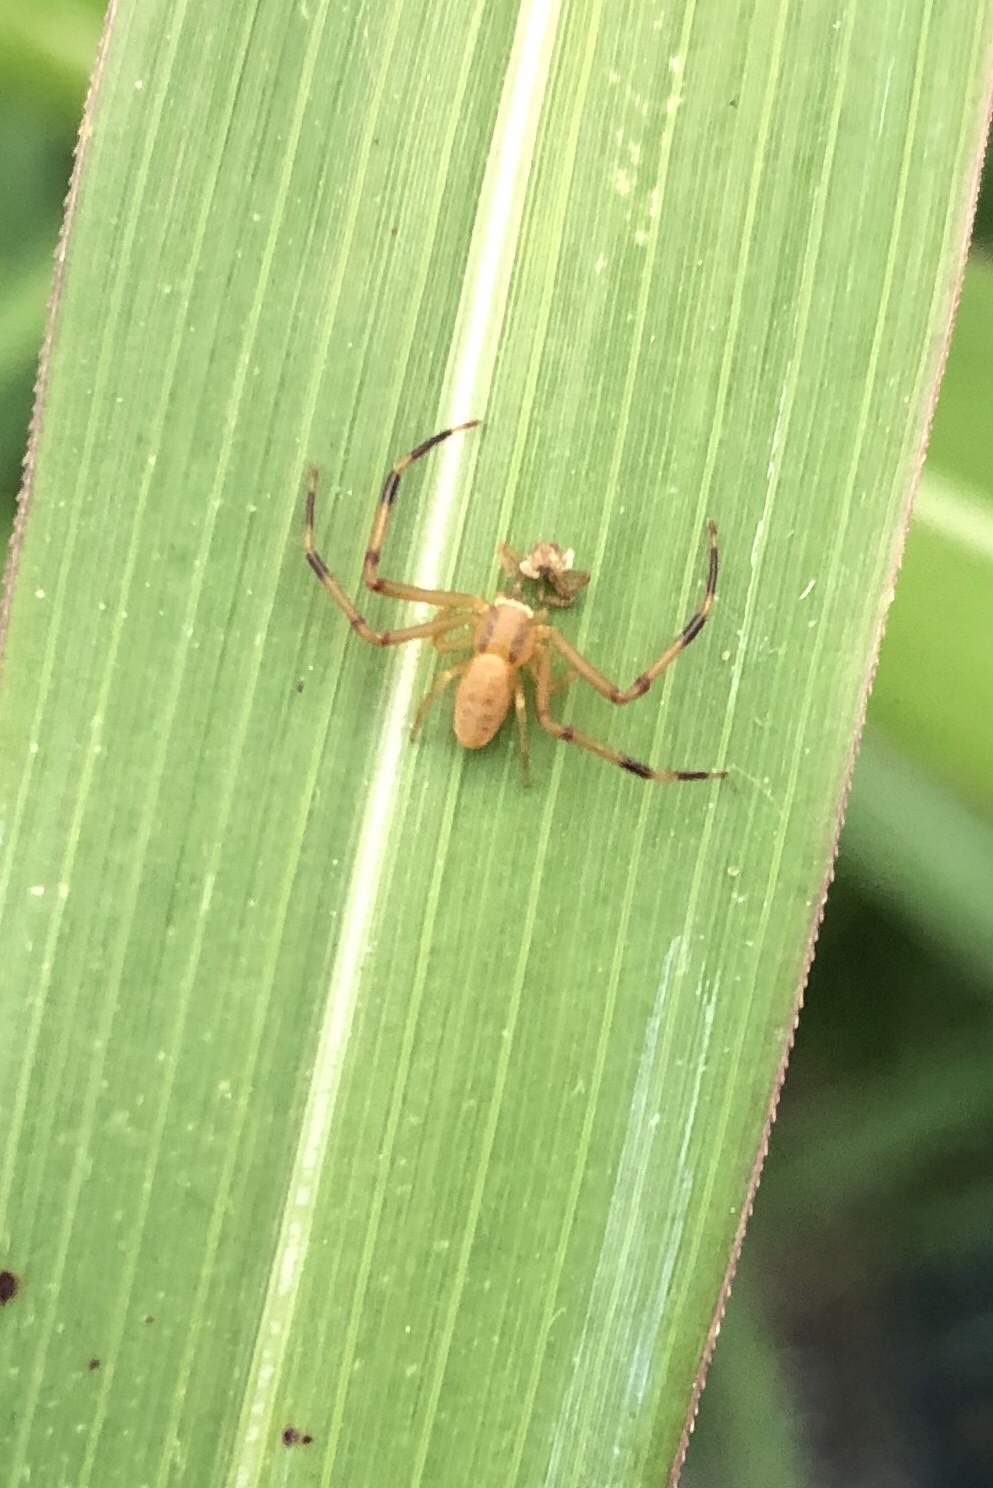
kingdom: Animalia
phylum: Arthropoda
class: Arachnida
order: Araneae
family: Thomisidae
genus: Runcinia
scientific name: Runcinia grammica
